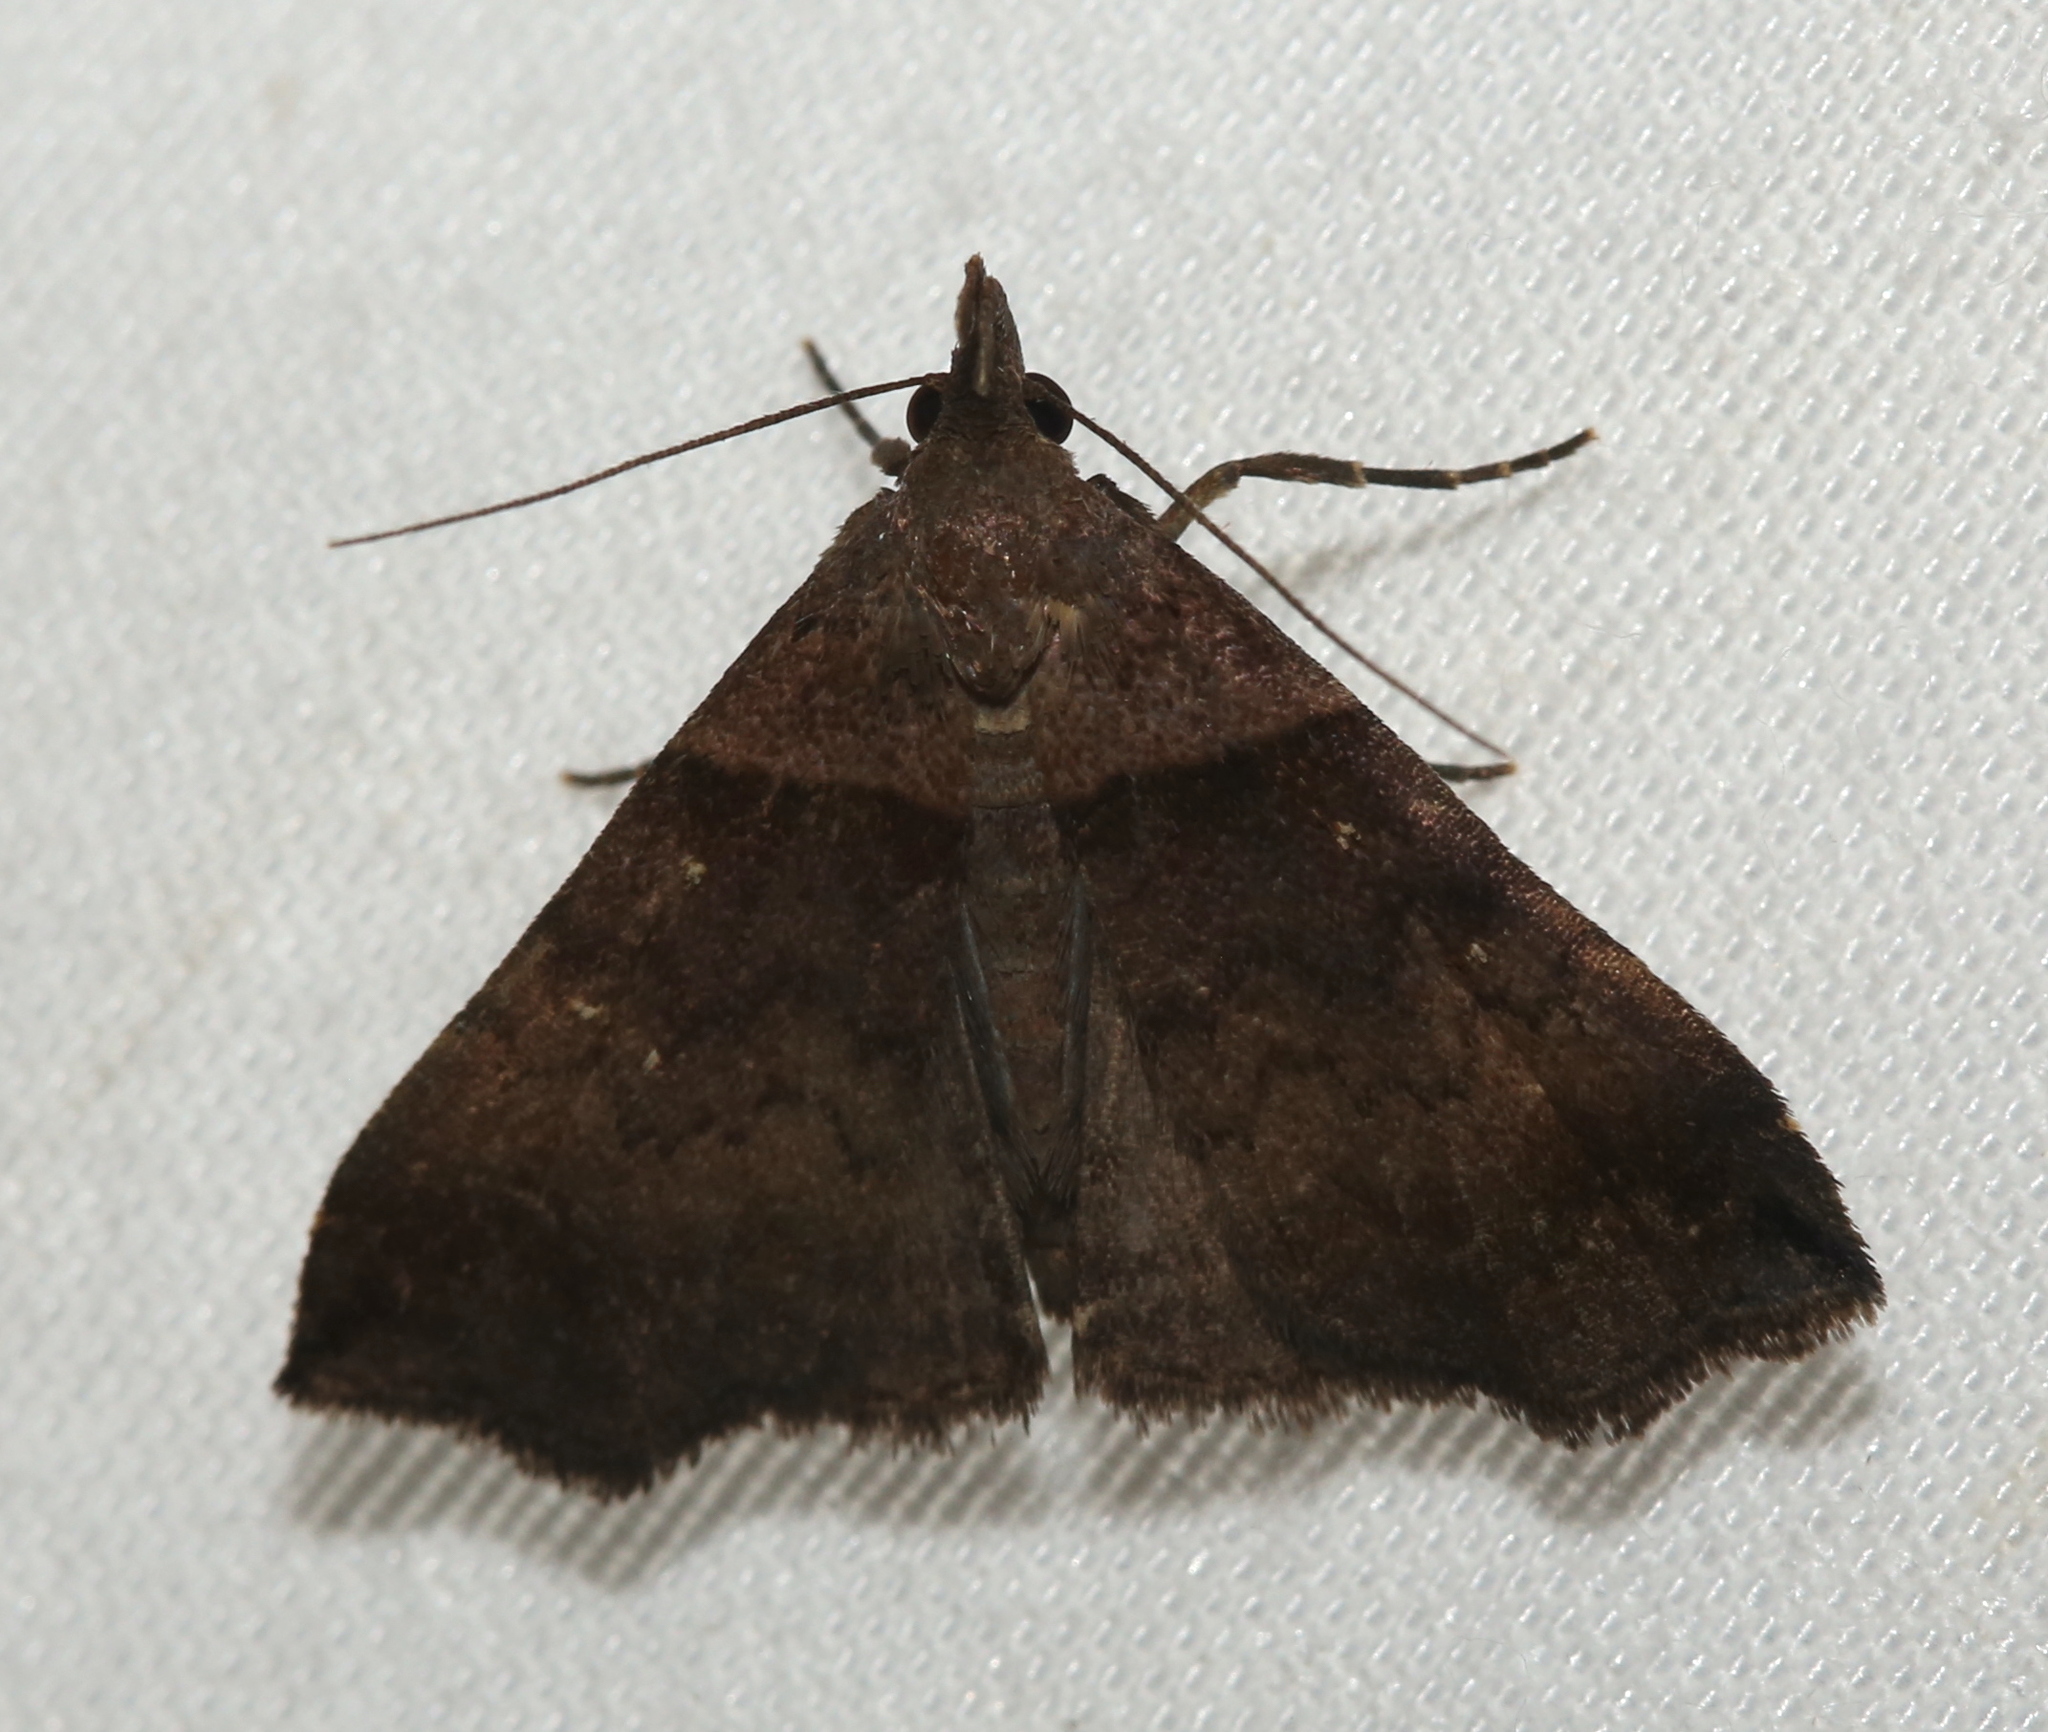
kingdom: Animalia
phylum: Arthropoda
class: Insecta
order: Lepidoptera
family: Erebidae
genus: Lascoria
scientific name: Lascoria ambigualis
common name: Ambiguous moth
